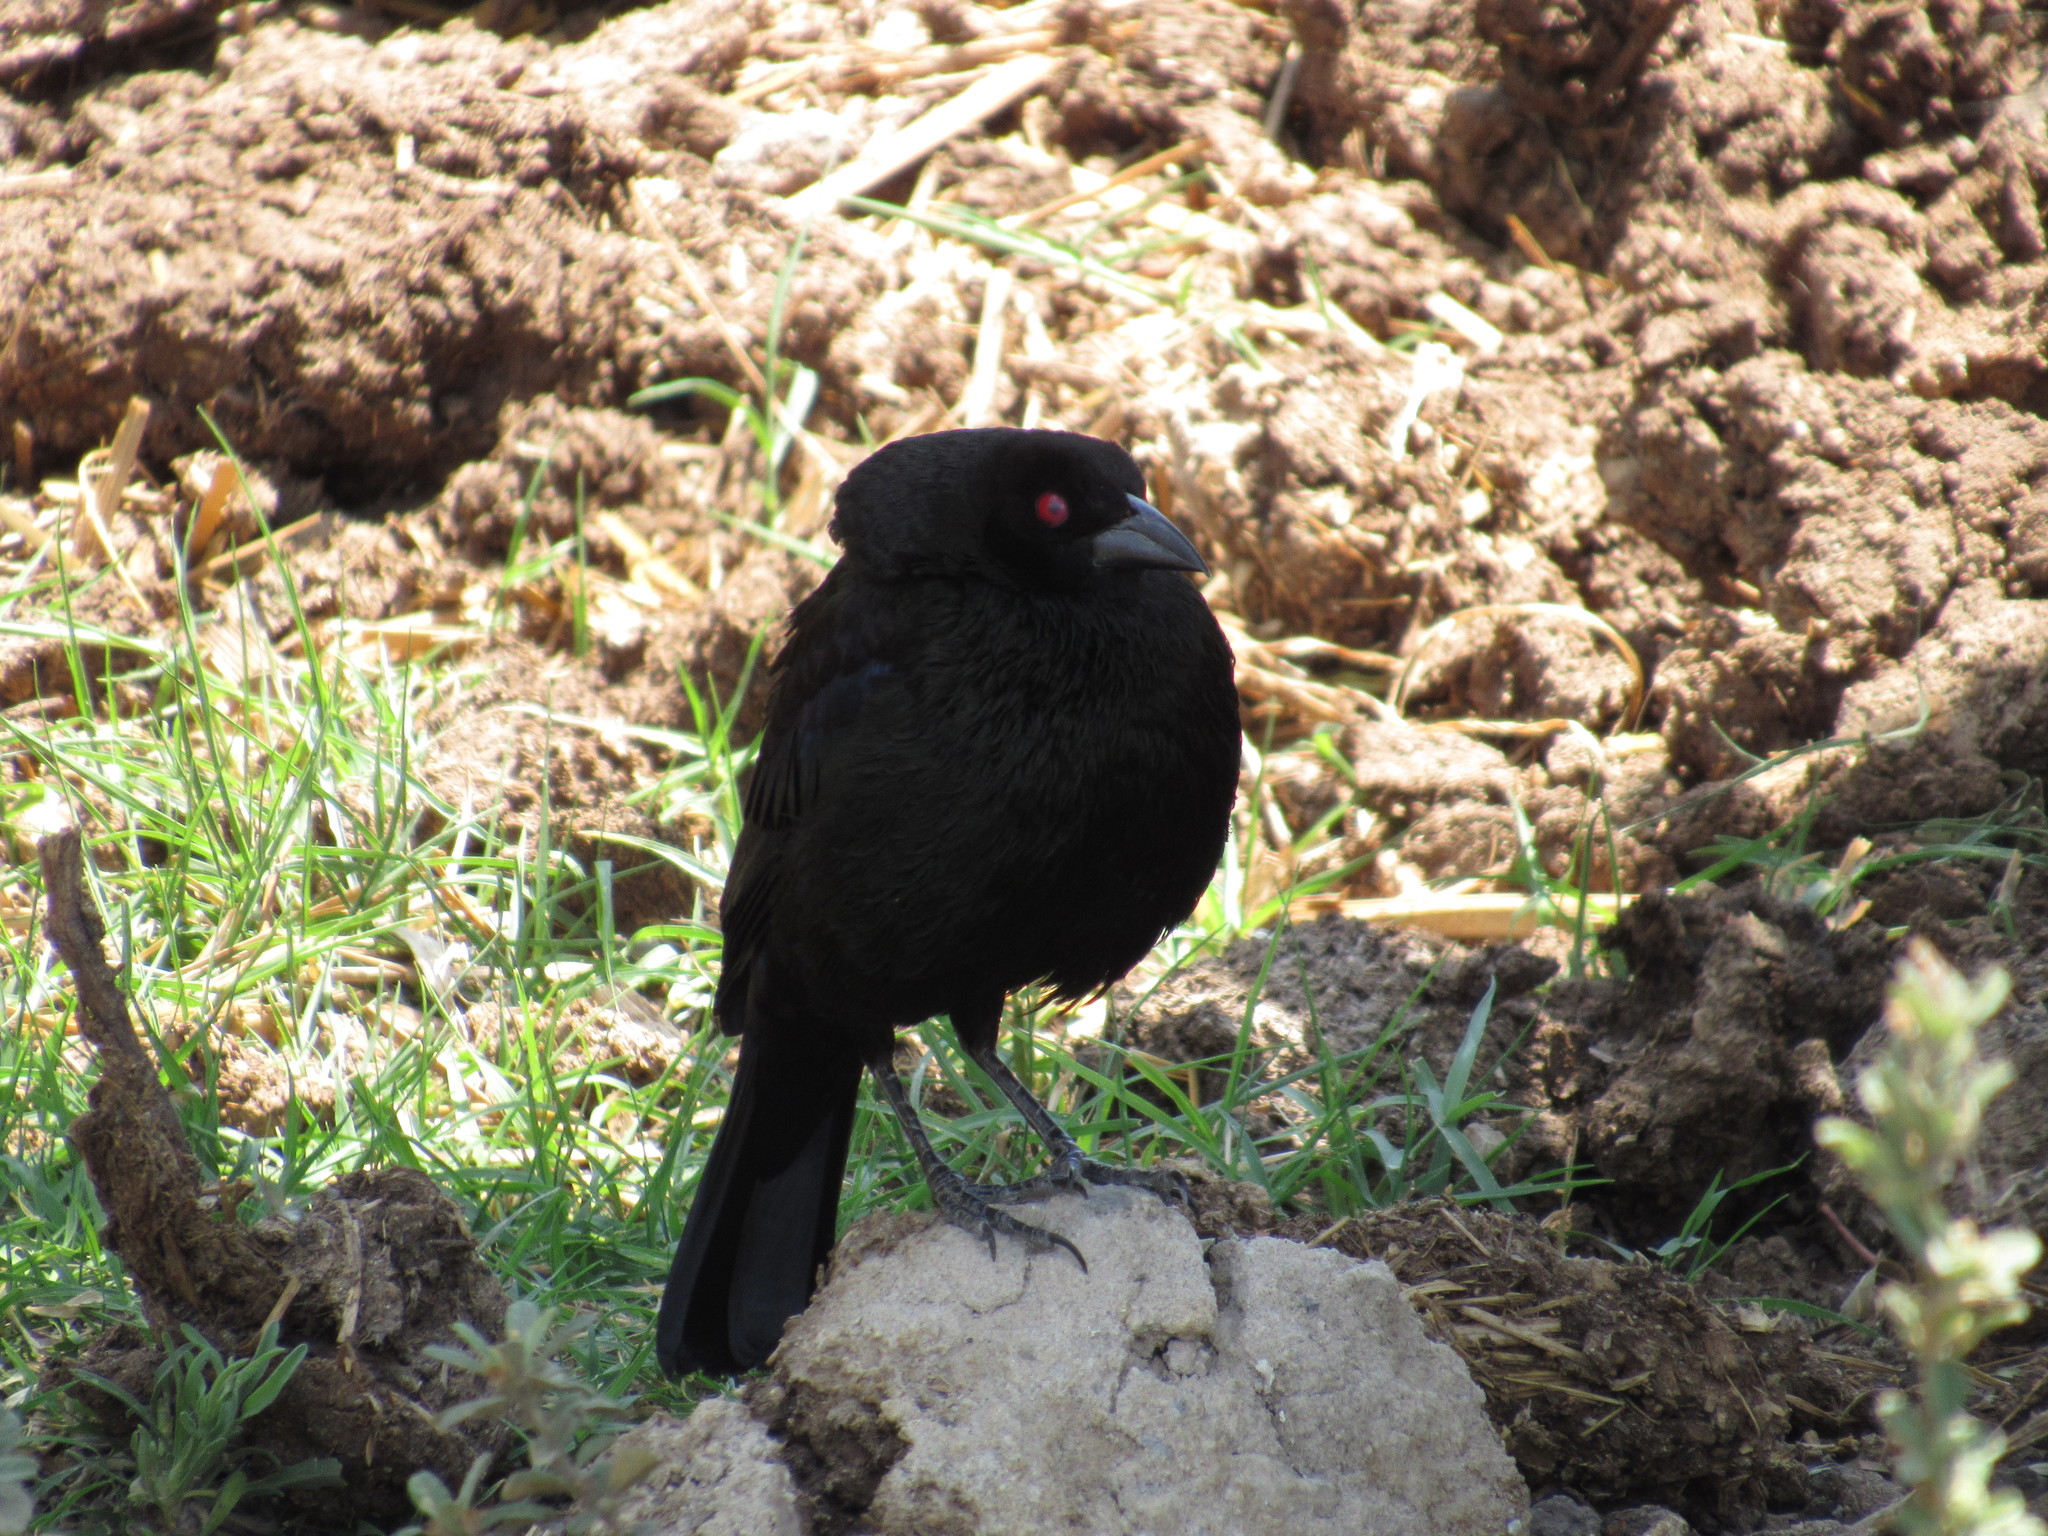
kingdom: Animalia
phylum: Chordata
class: Aves
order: Passeriformes
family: Icteridae
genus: Molothrus
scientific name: Molothrus aeneus
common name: Bronzed cowbird
